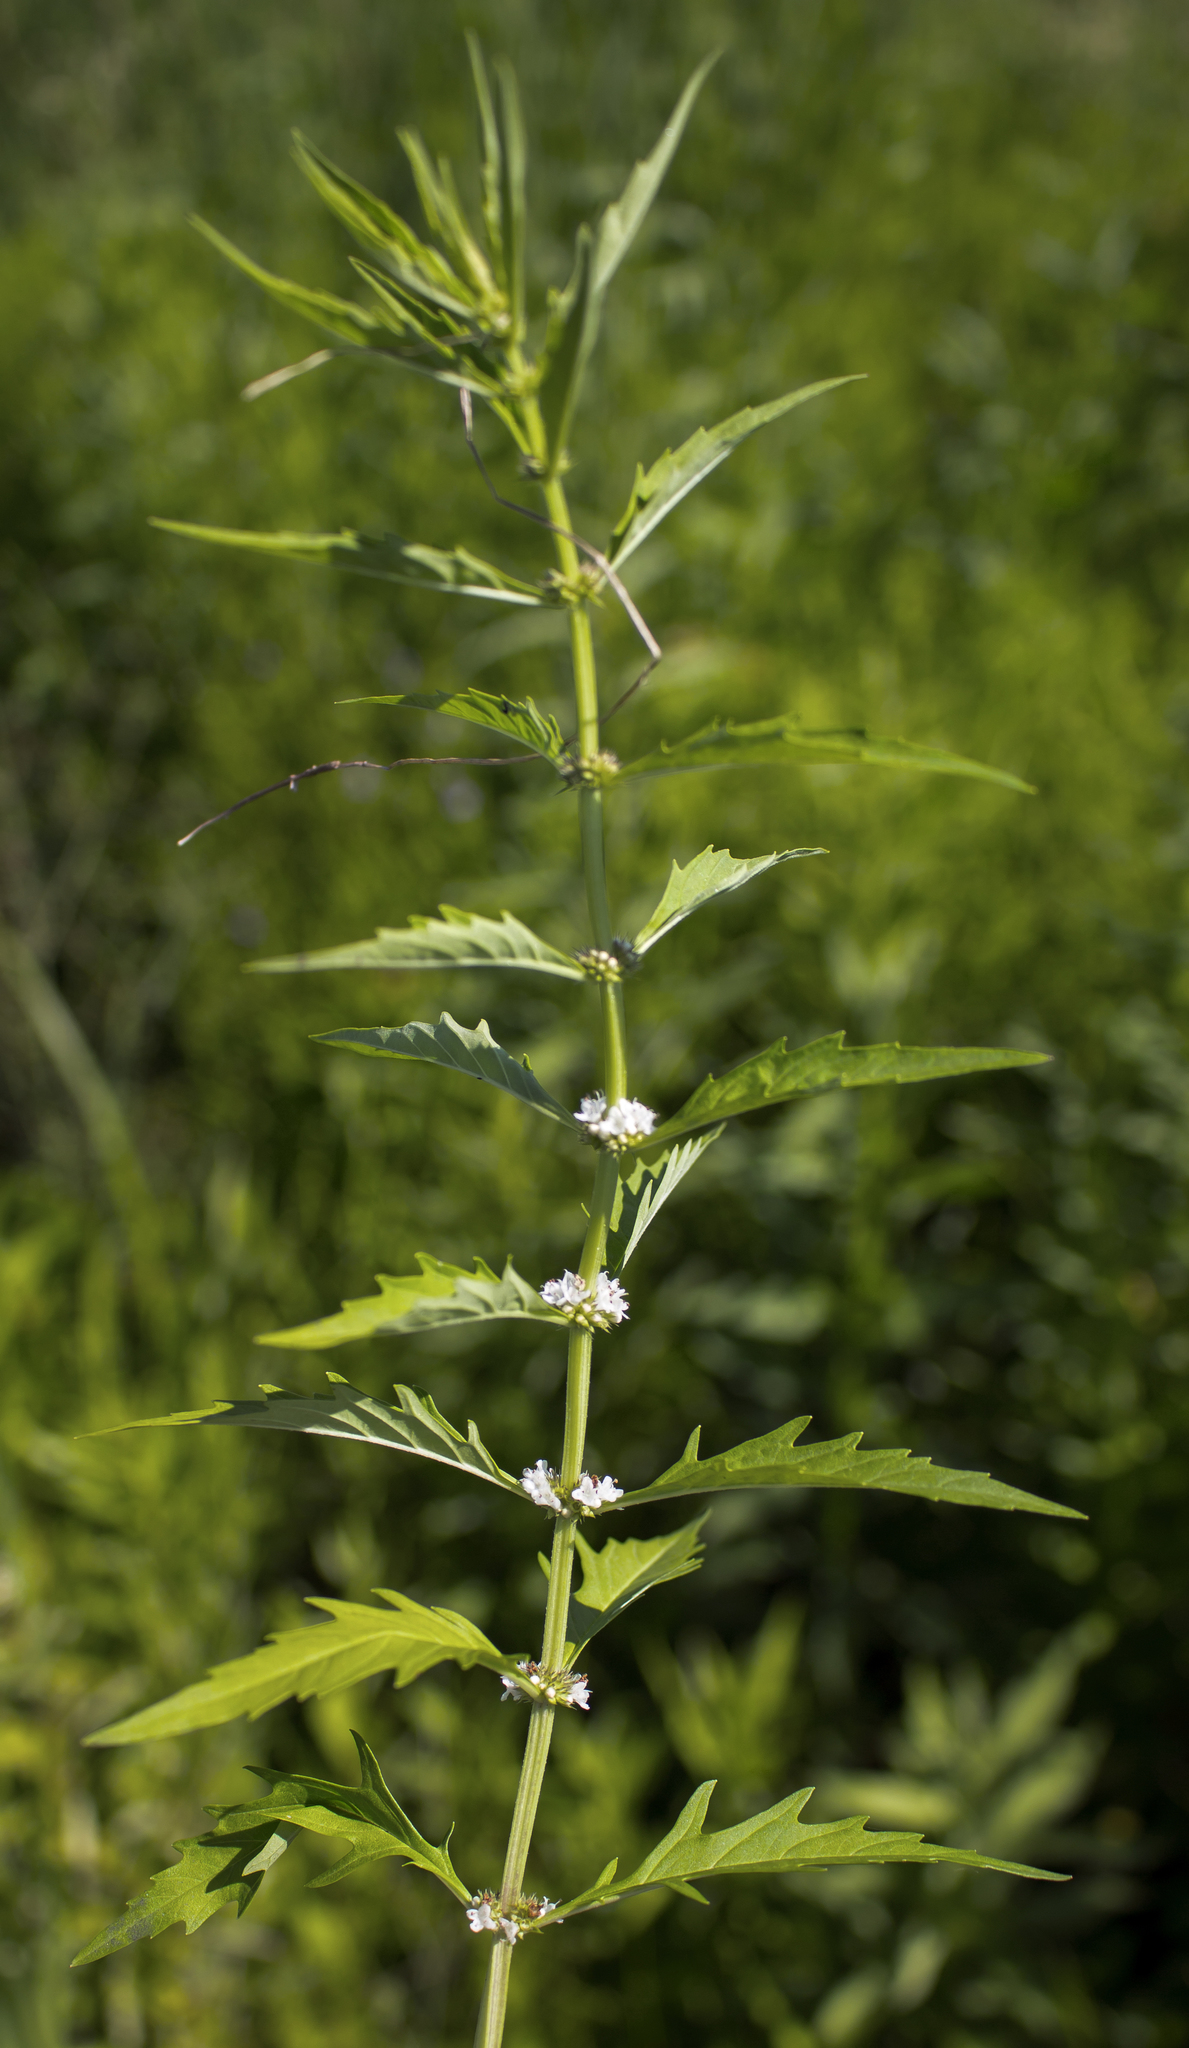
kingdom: Plantae
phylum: Tracheophyta
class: Magnoliopsida
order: Lamiales
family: Lamiaceae
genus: Lycopus
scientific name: Lycopus americanus
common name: American bugleweed
